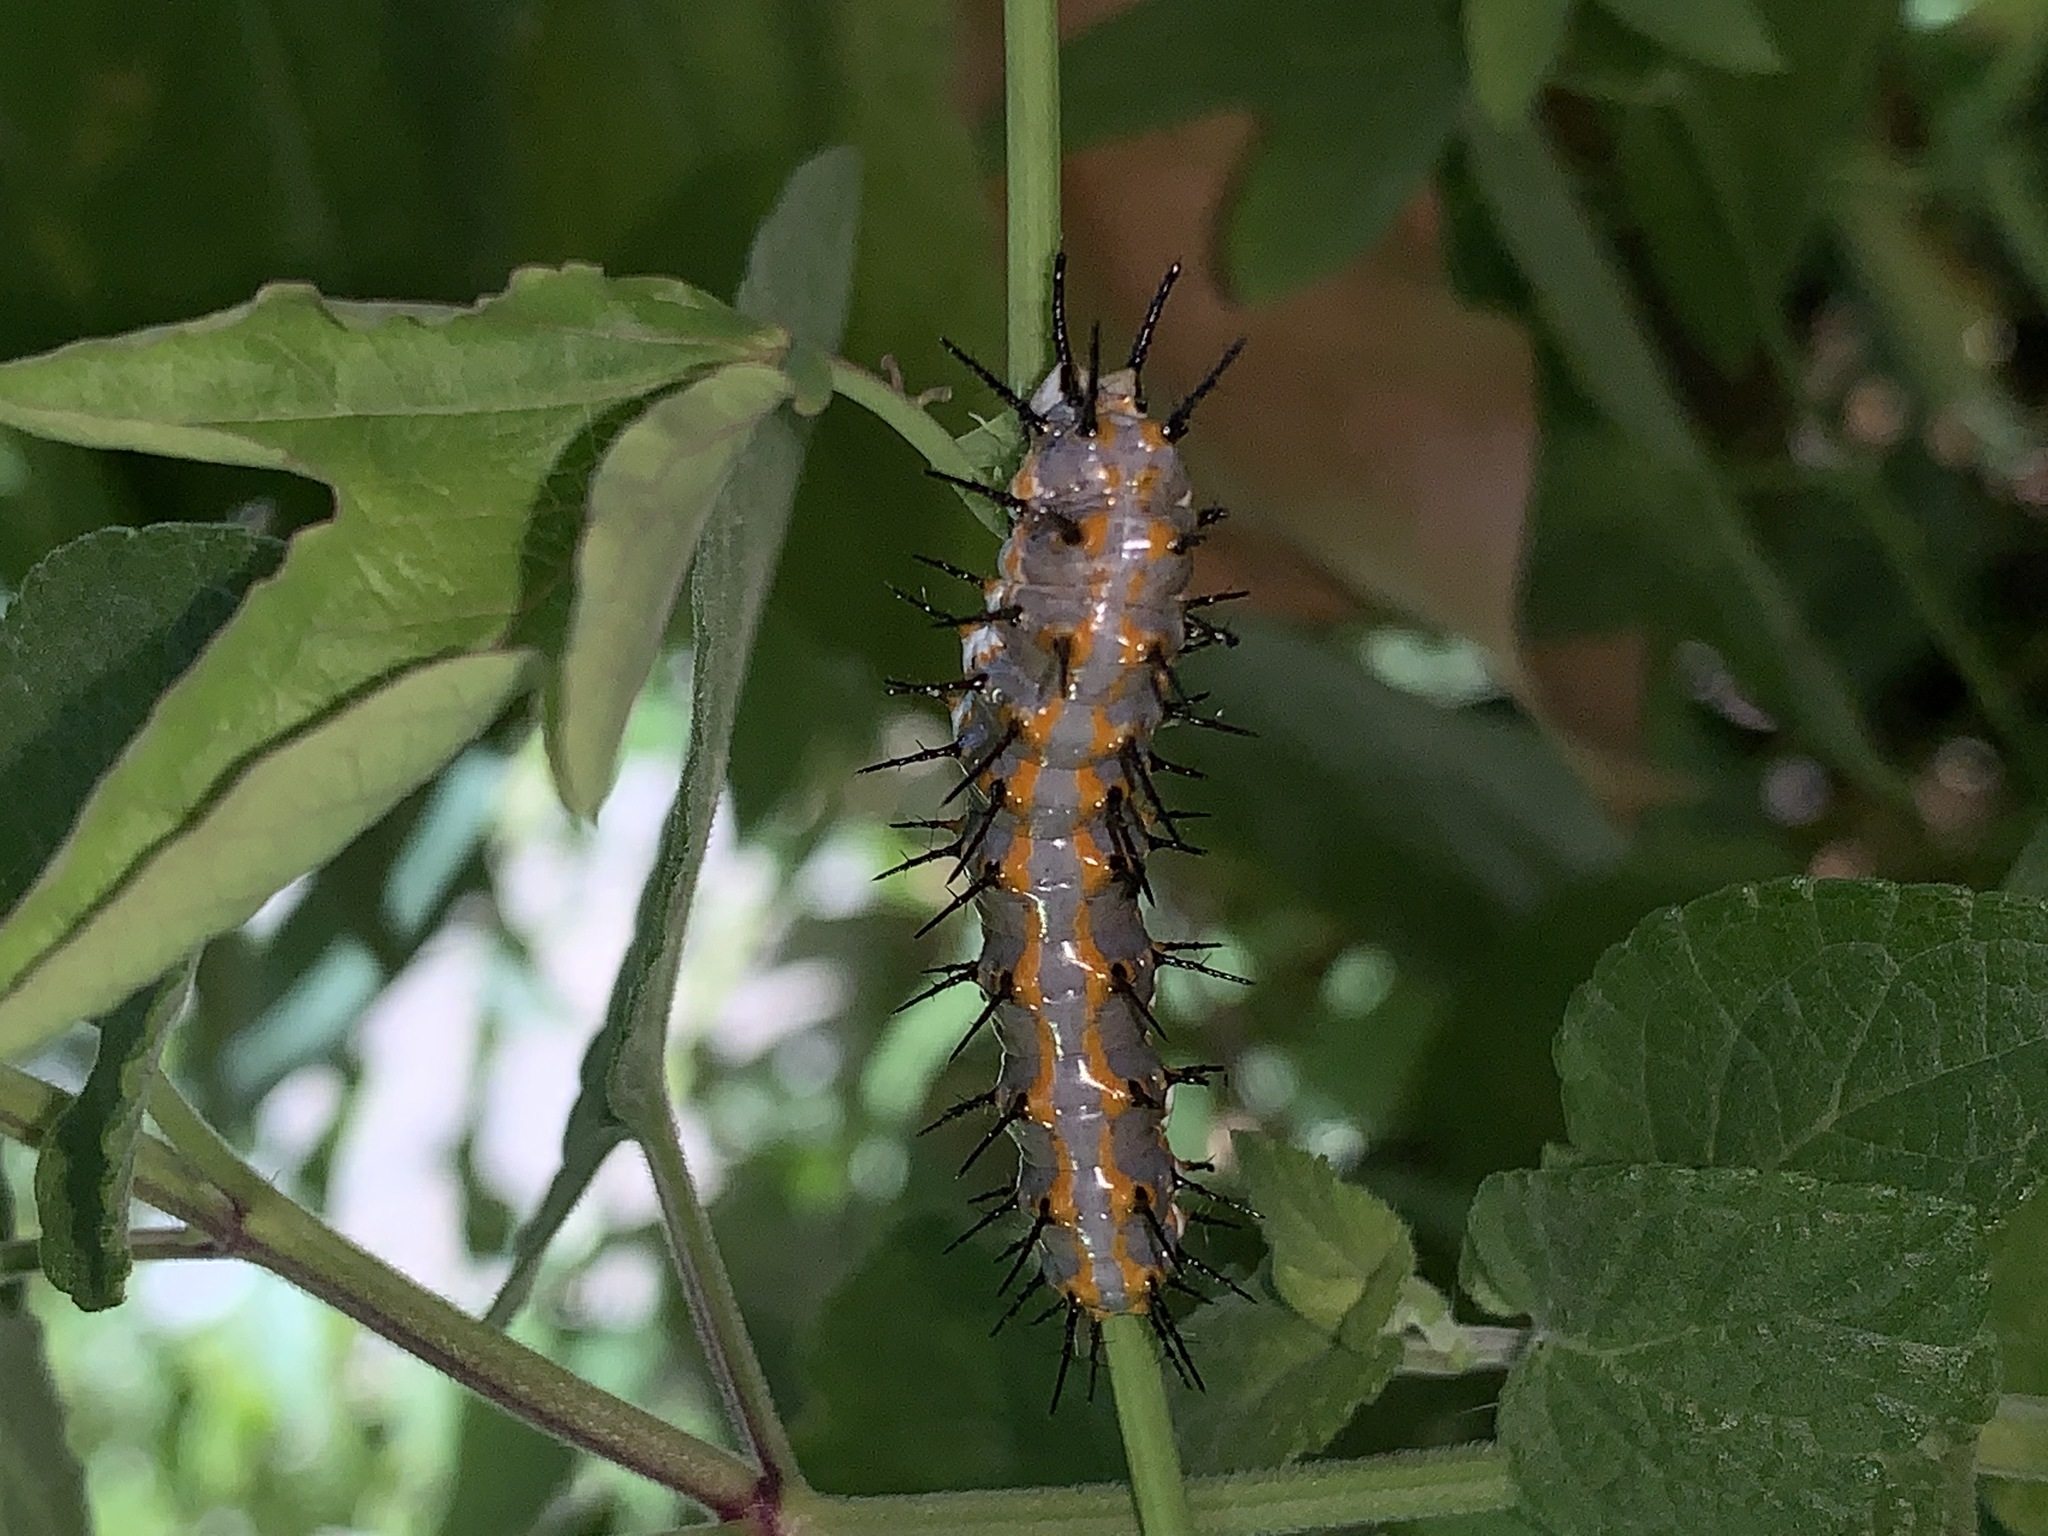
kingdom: Animalia
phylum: Arthropoda
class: Insecta
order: Lepidoptera
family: Nymphalidae
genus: Dione
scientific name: Dione vanillae
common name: Gulf fritillary
